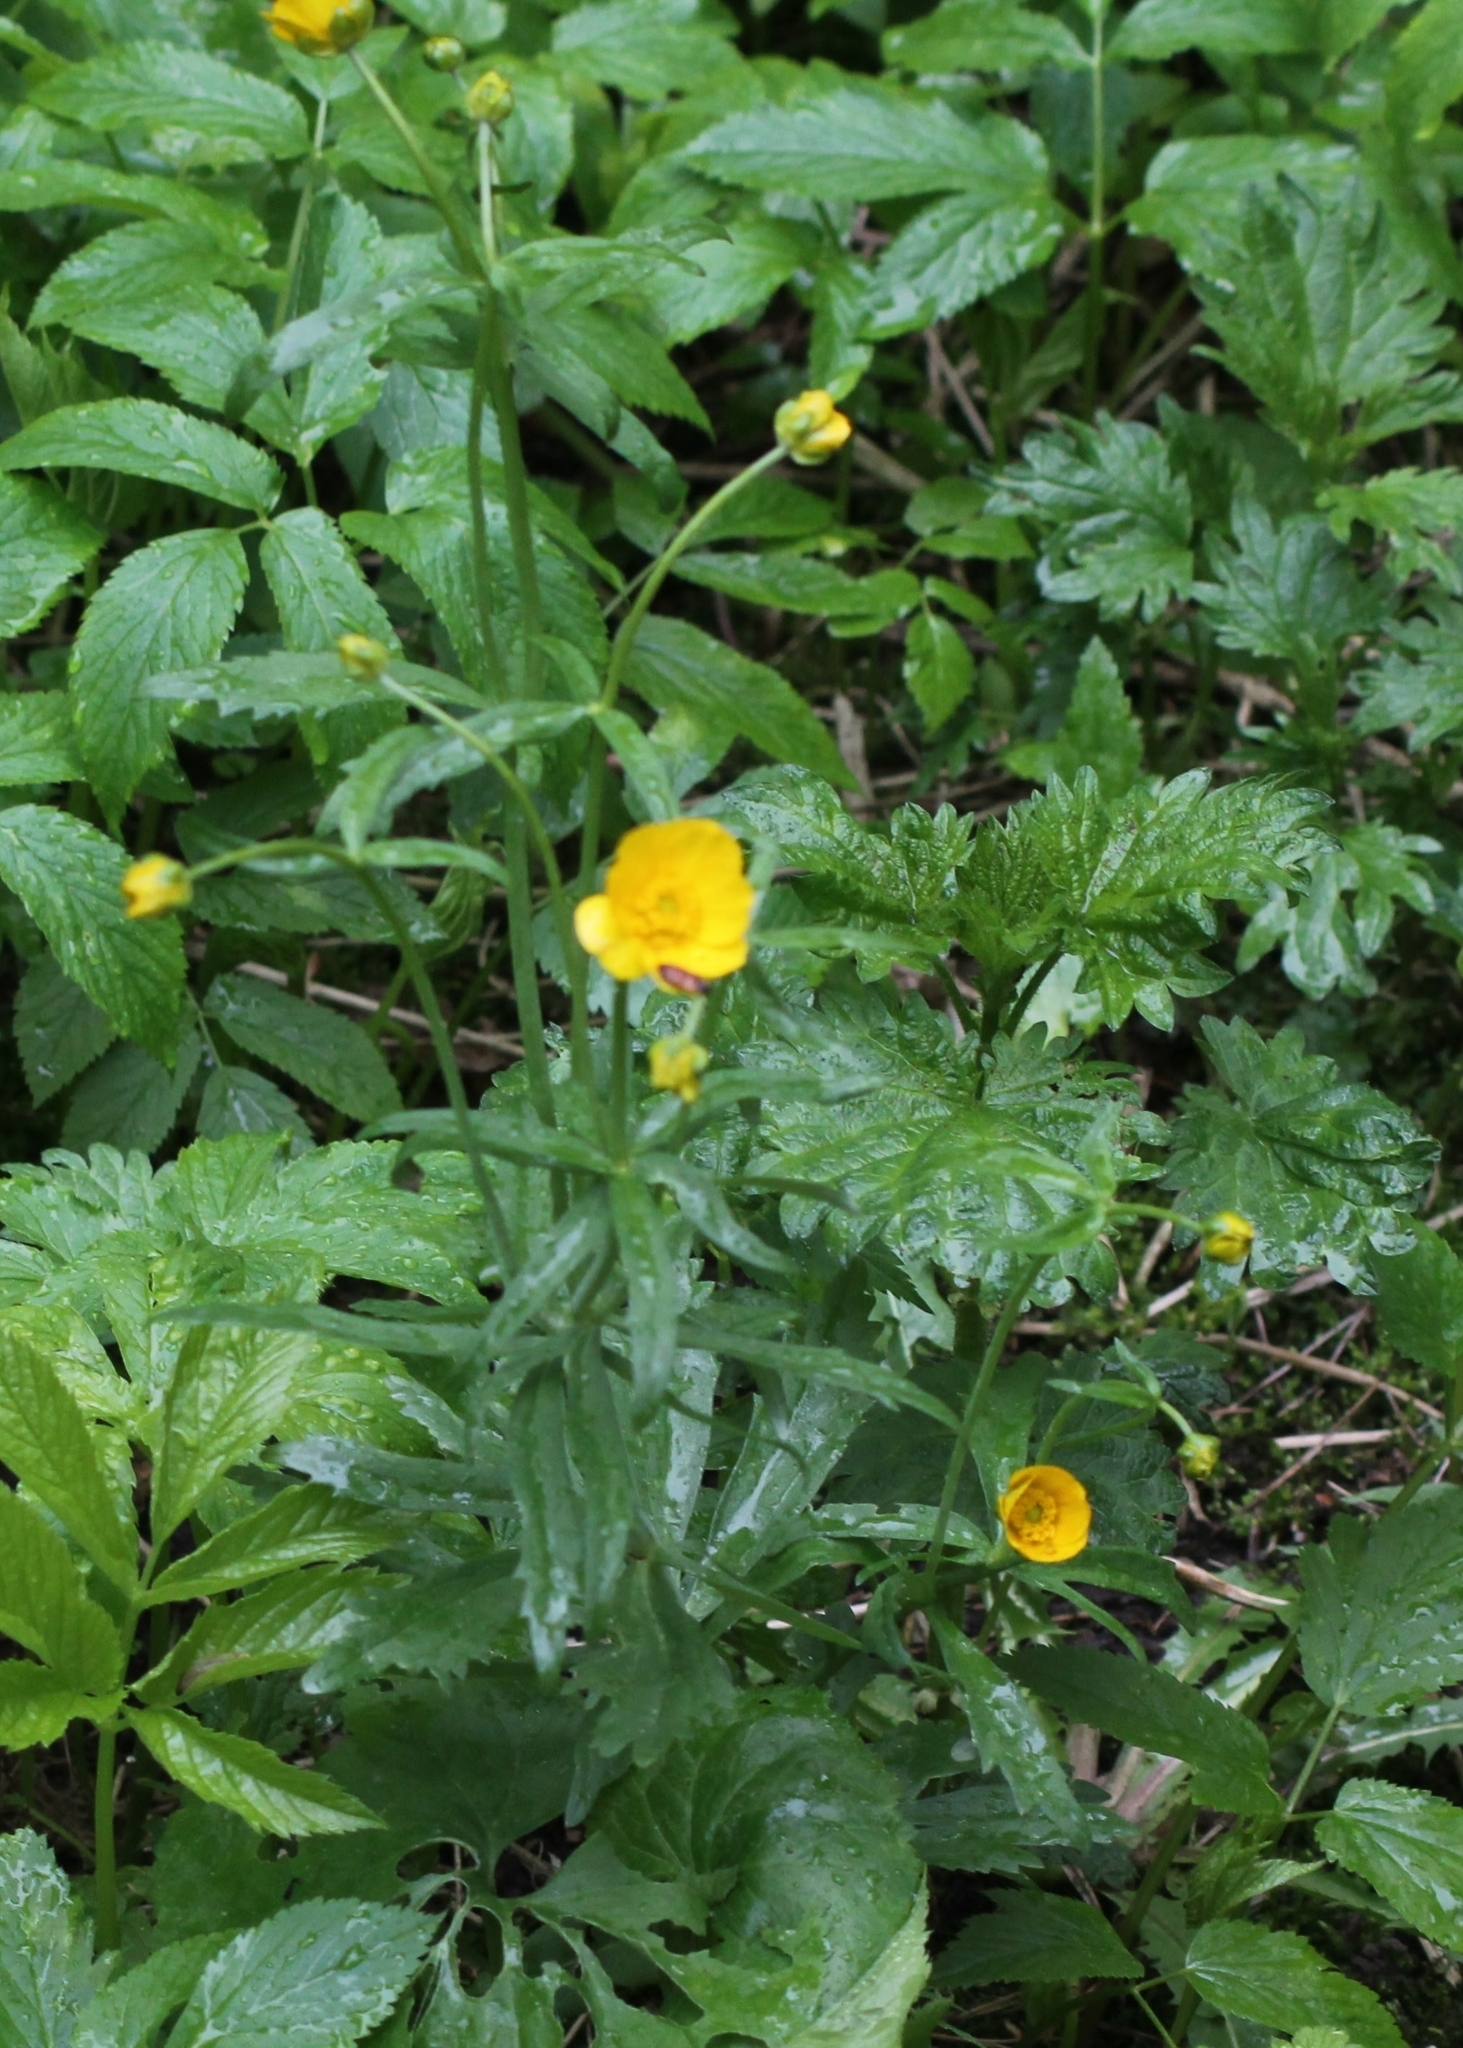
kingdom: Plantae
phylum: Tracheophyta
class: Magnoliopsida
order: Ranunculales
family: Ranunculaceae
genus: Ranunculus
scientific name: Ranunculus cassubicus
